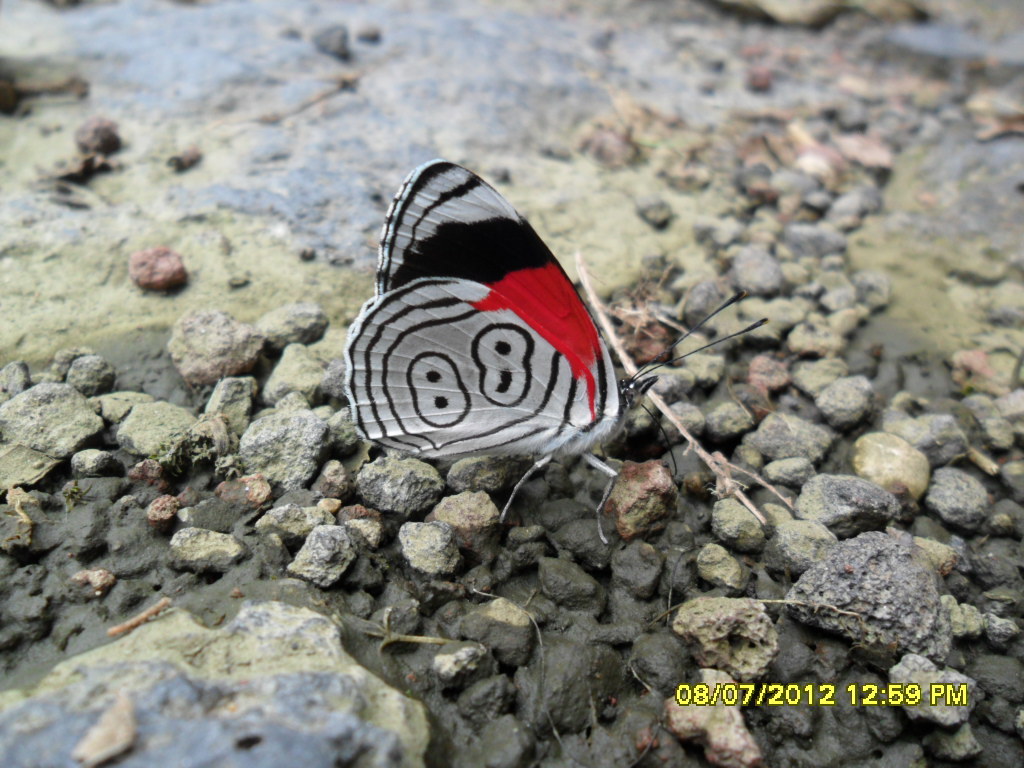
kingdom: Animalia
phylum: Arthropoda
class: Insecta
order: Lepidoptera
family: Nymphalidae
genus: Diaethria
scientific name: Diaethria anna
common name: Anna’s eighty-eight
